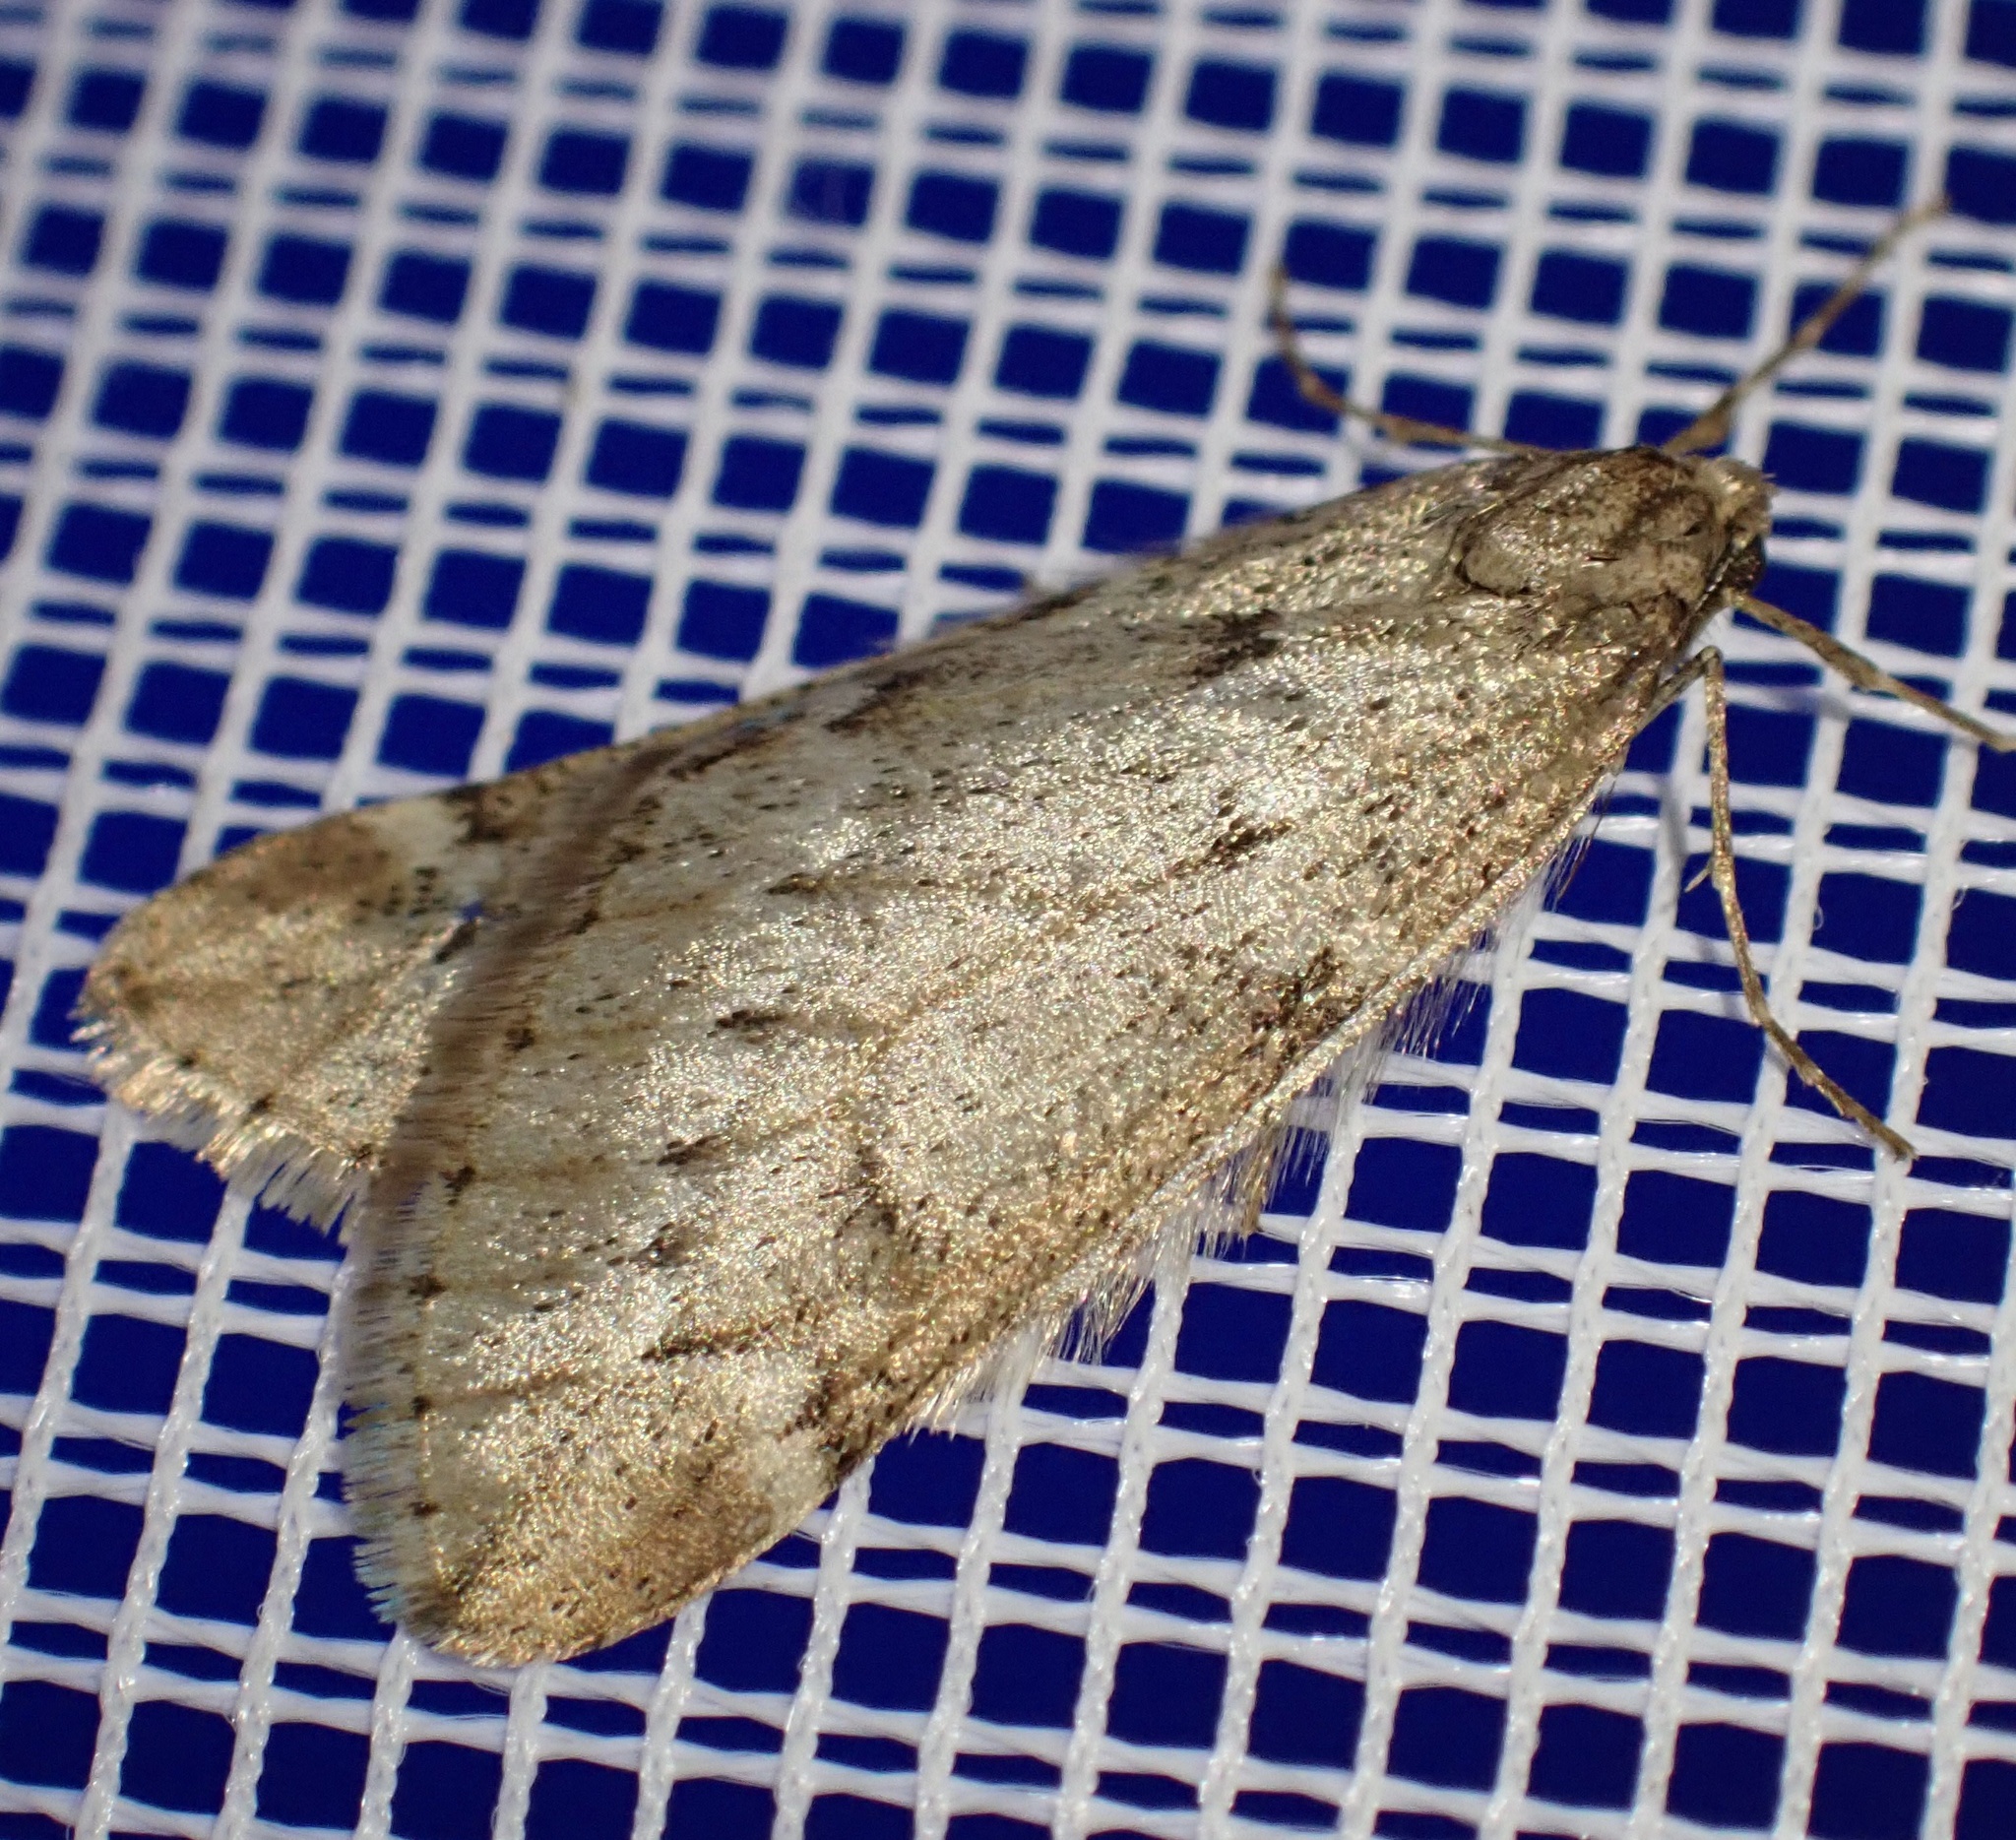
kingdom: Animalia
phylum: Arthropoda
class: Insecta
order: Lepidoptera
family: Geometridae
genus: Alsophila
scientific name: Alsophila aescularia
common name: March moth
